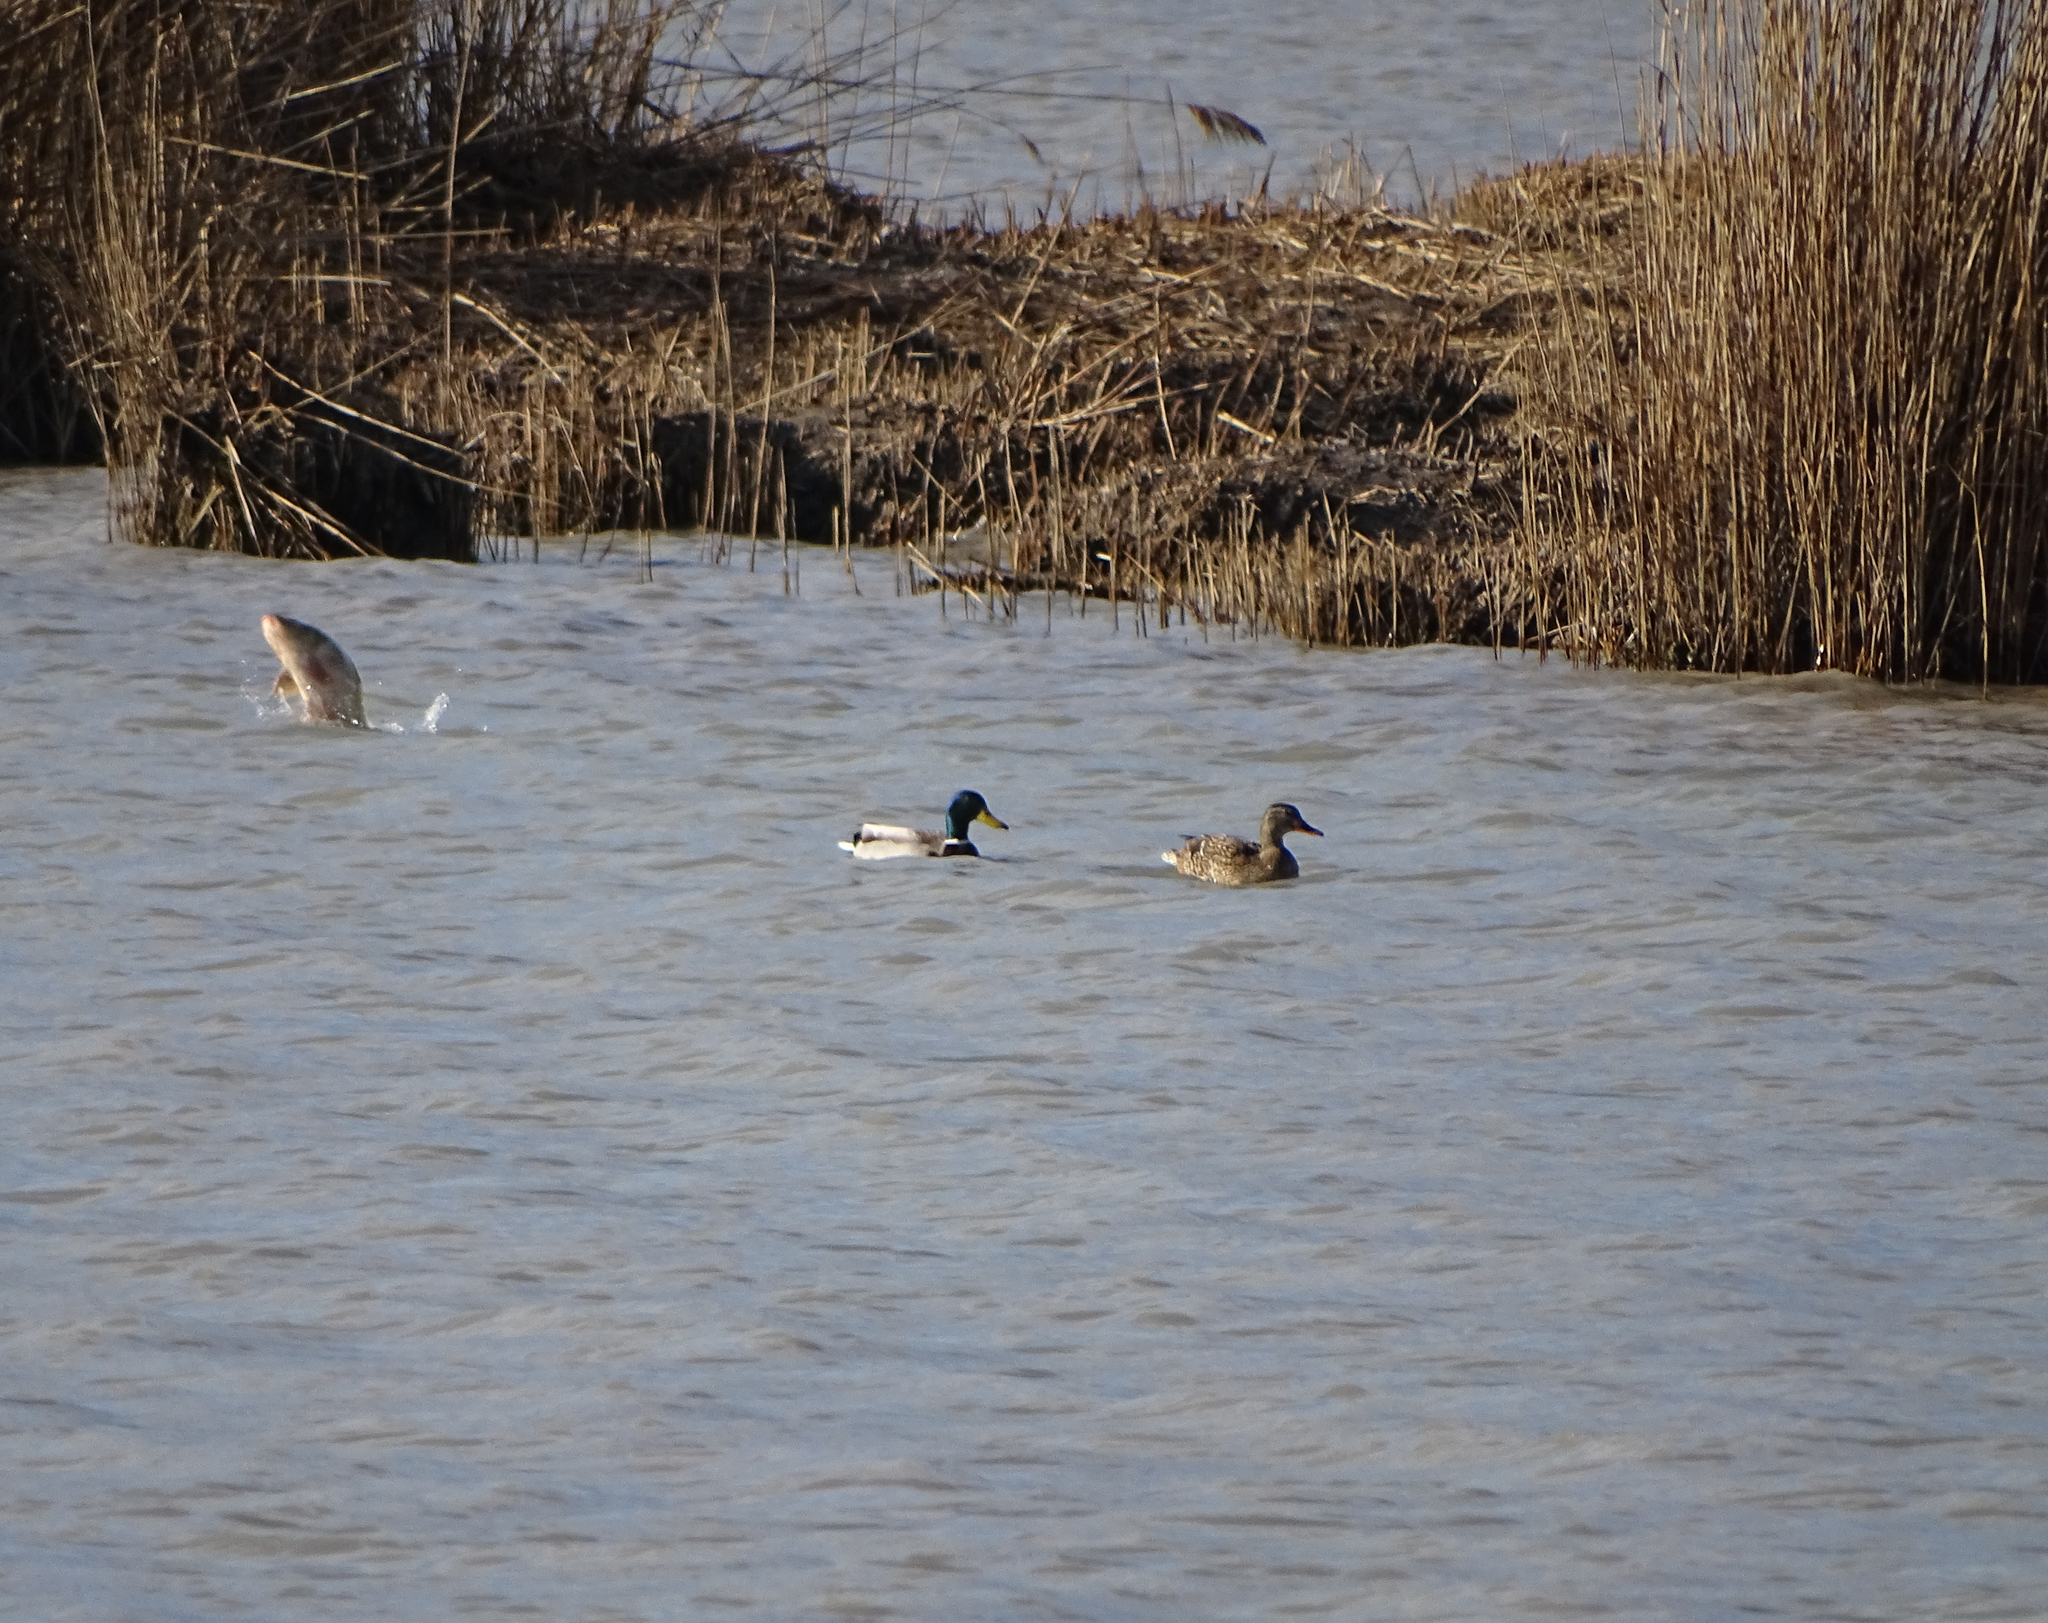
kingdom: Animalia
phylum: Chordata
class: Aves
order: Anseriformes
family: Anatidae
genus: Anas
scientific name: Anas platyrhynchos
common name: Mallard
